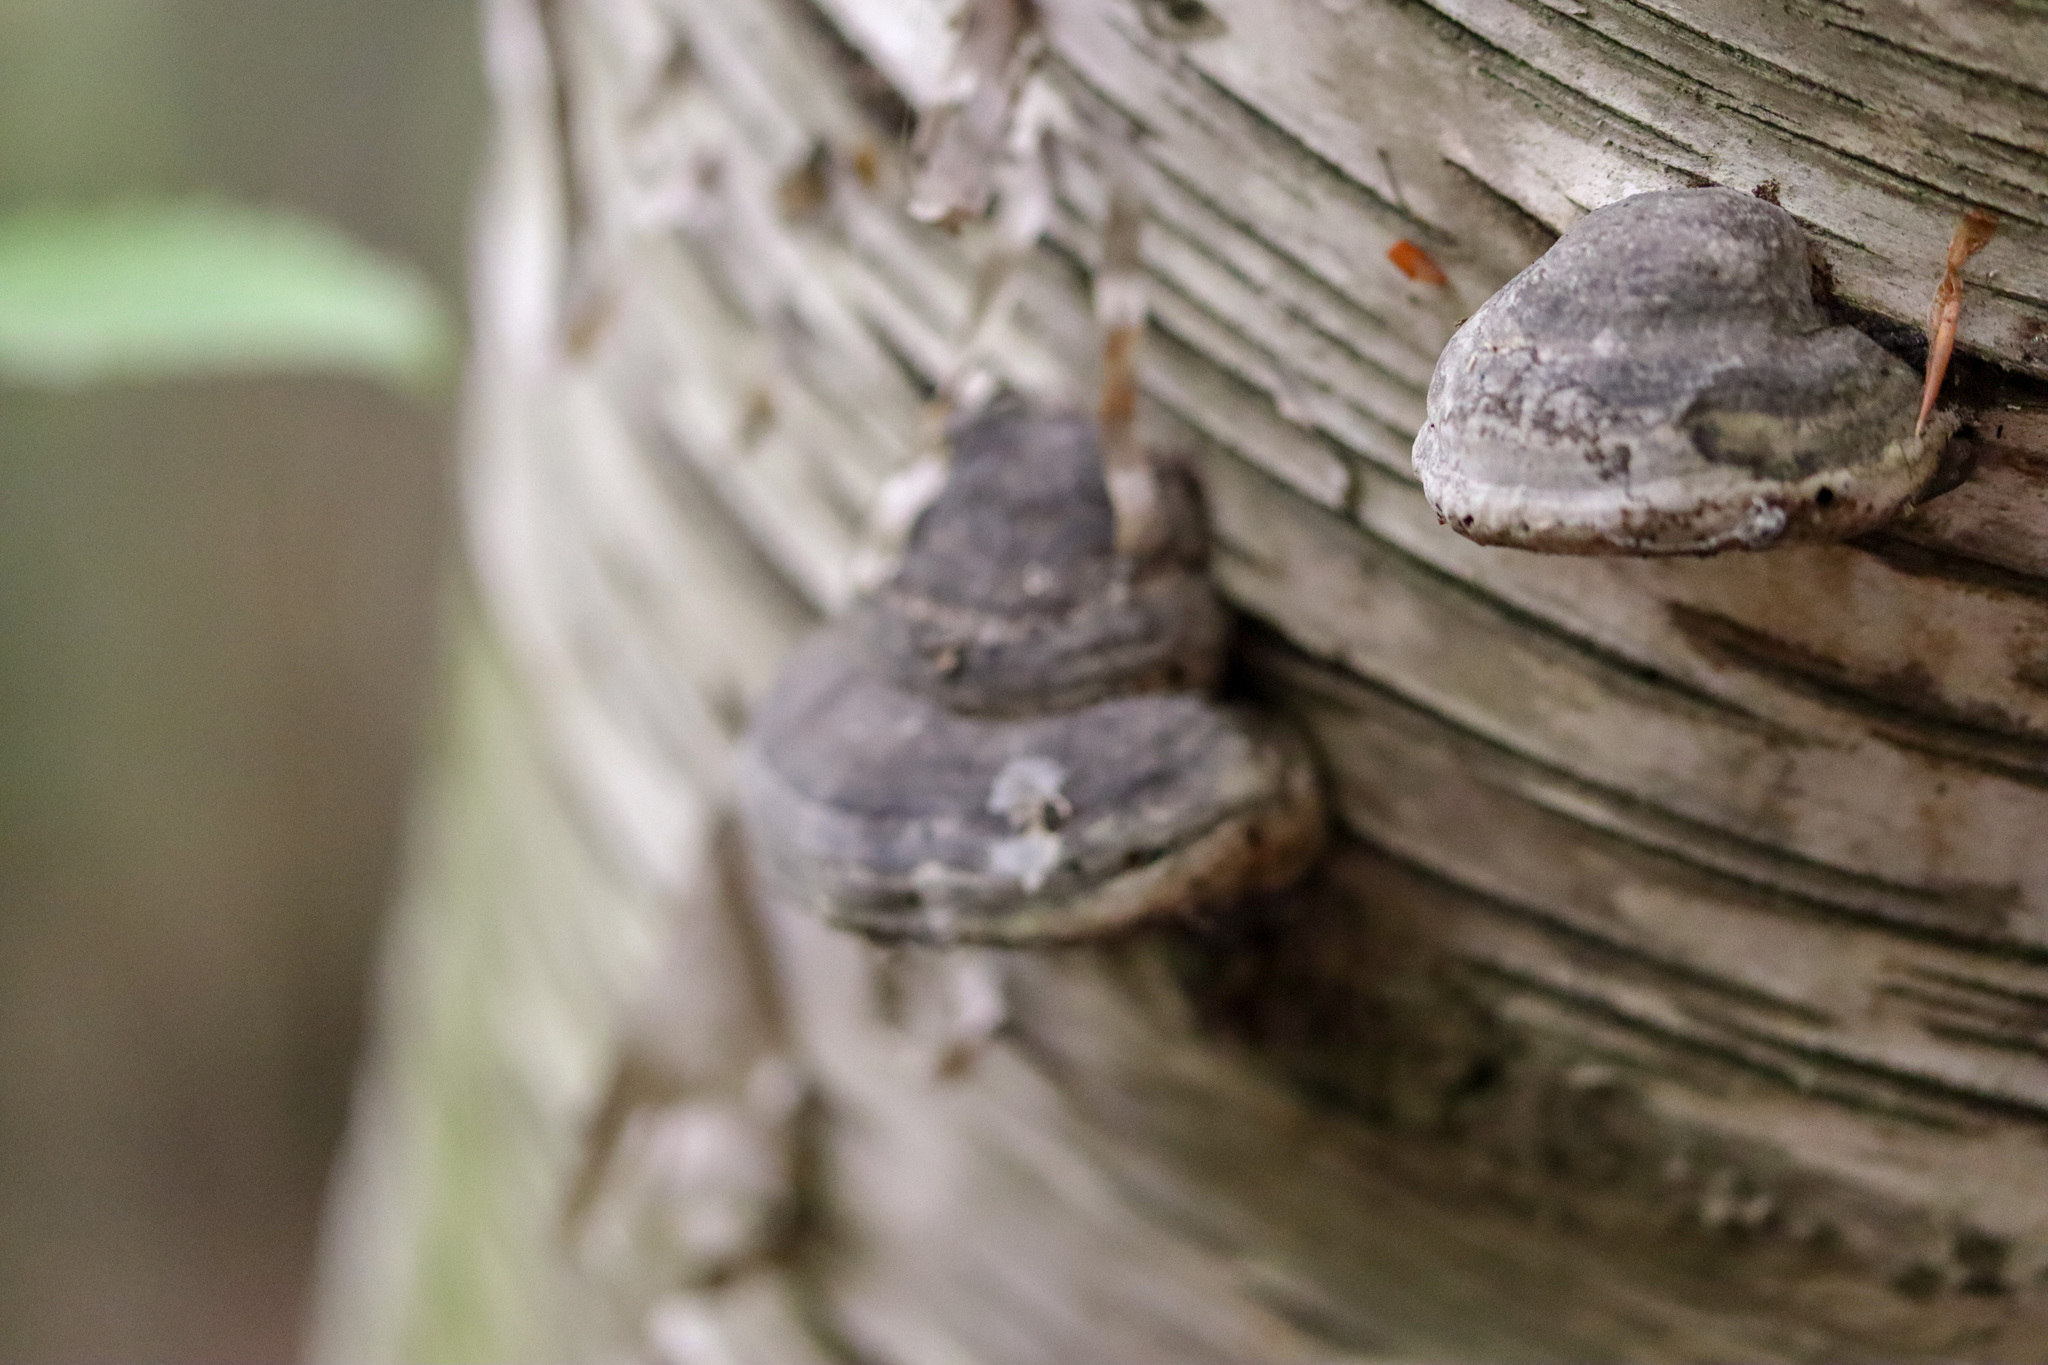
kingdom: Fungi
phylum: Basidiomycota
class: Agaricomycetes
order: Polyporales
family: Polyporaceae
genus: Fomes
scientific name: Fomes fomentarius
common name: Hoof fungus
